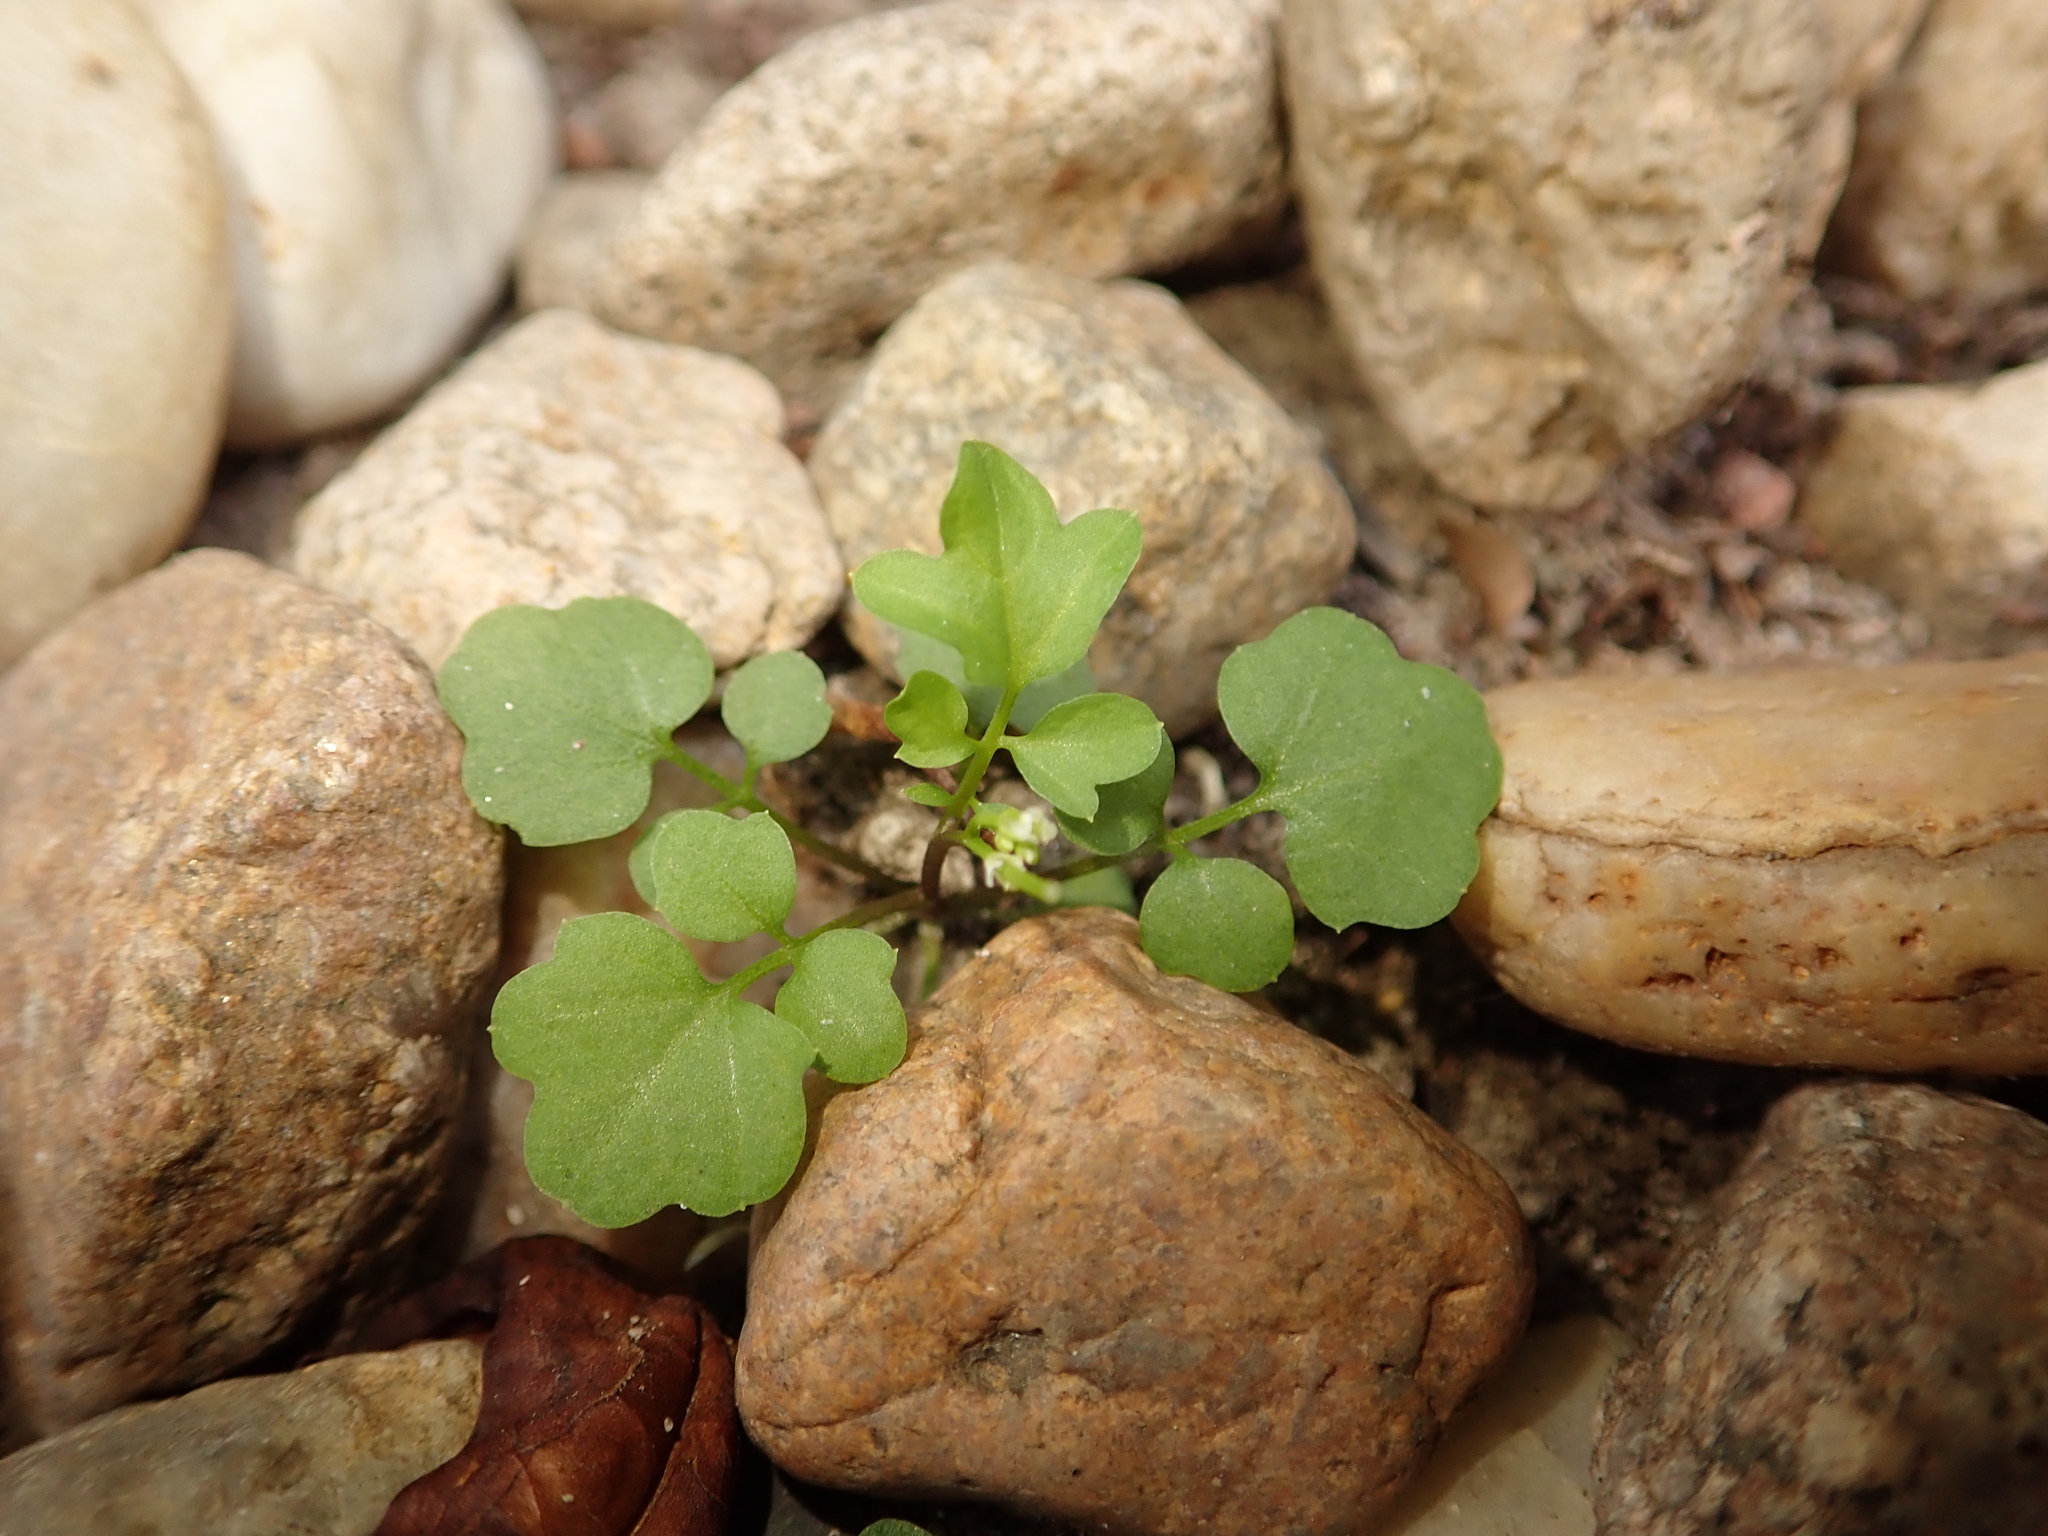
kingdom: Plantae
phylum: Tracheophyta
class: Magnoliopsida
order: Brassicales
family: Brassicaceae
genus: Cardamine
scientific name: Cardamine hirsuta
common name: Hairy bittercress
